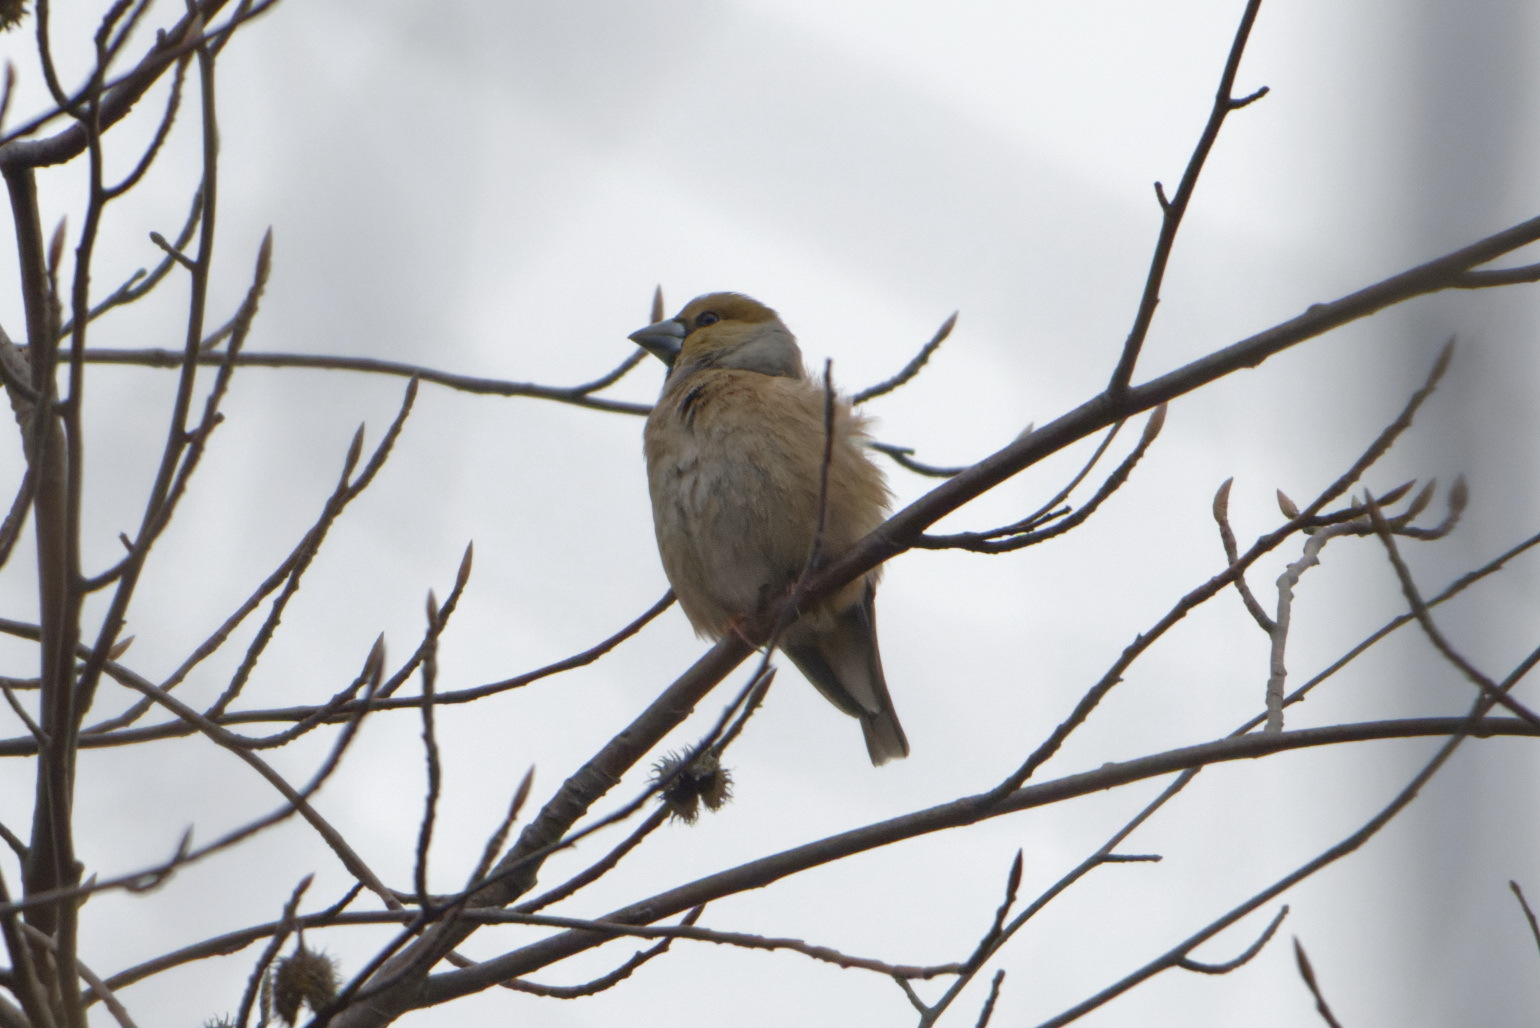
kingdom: Animalia
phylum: Chordata
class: Aves
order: Passeriformes
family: Fringillidae
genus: Coccothraustes
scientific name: Coccothraustes coccothraustes
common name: Hawfinch
